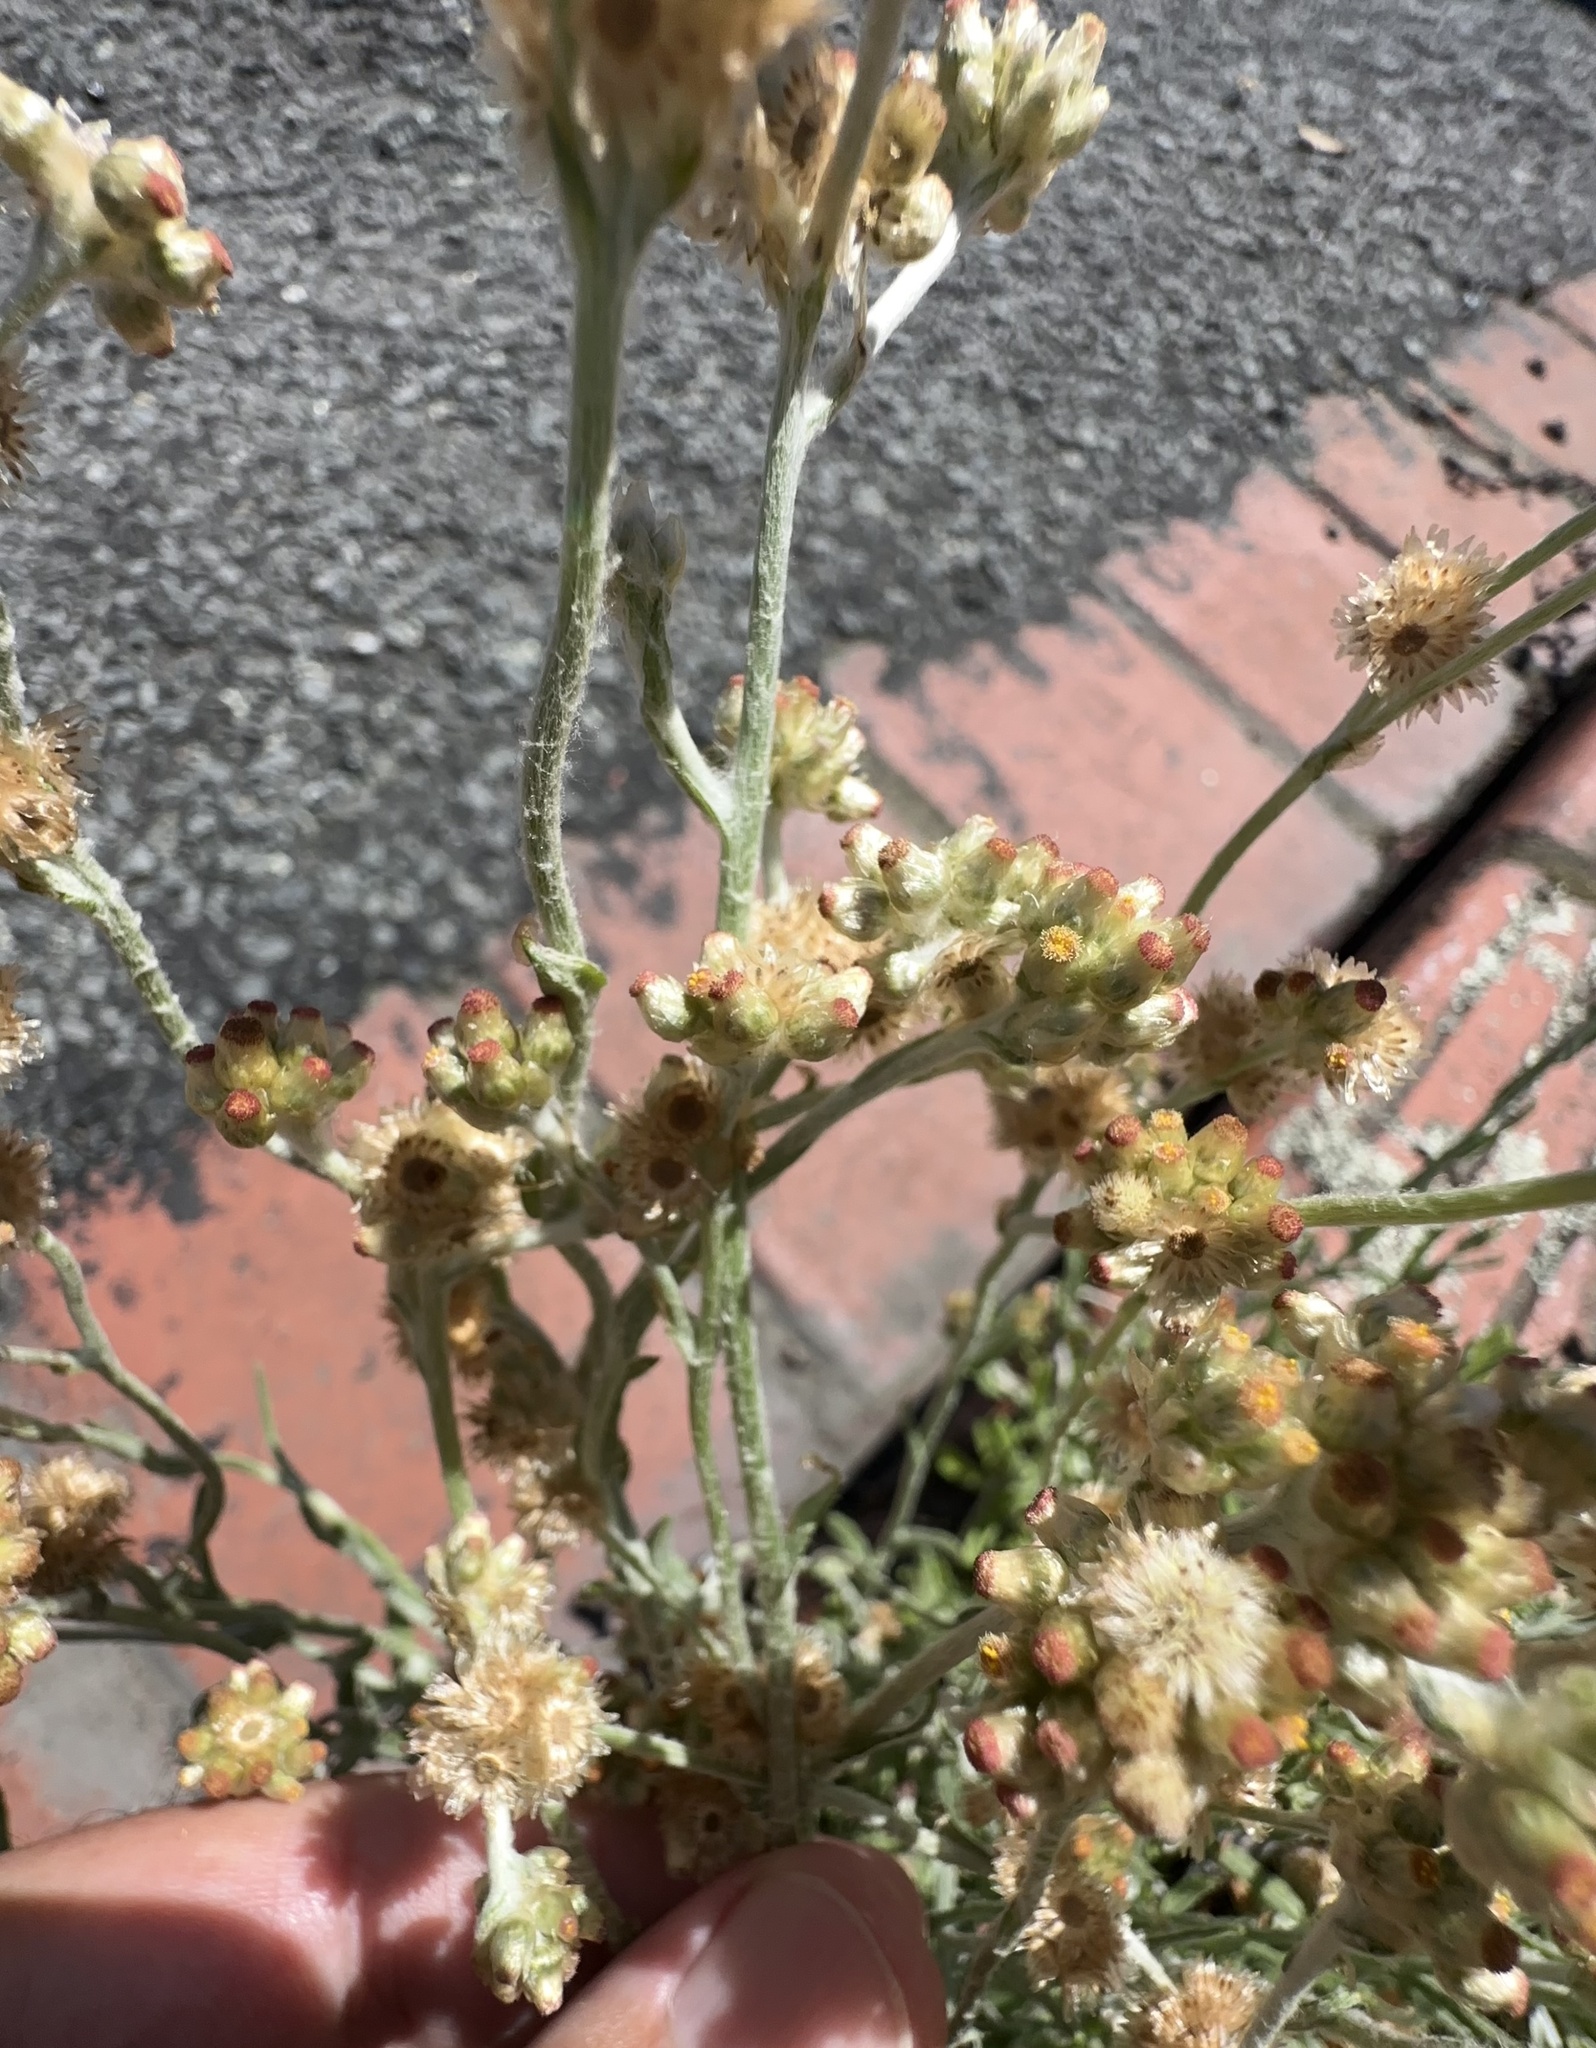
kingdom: Plantae
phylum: Tracheophyta
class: Magnoliopsida
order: Asterales
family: Asteraceae
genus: Helichrysum
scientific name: Helichrysum luteoalbum
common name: Daisy
